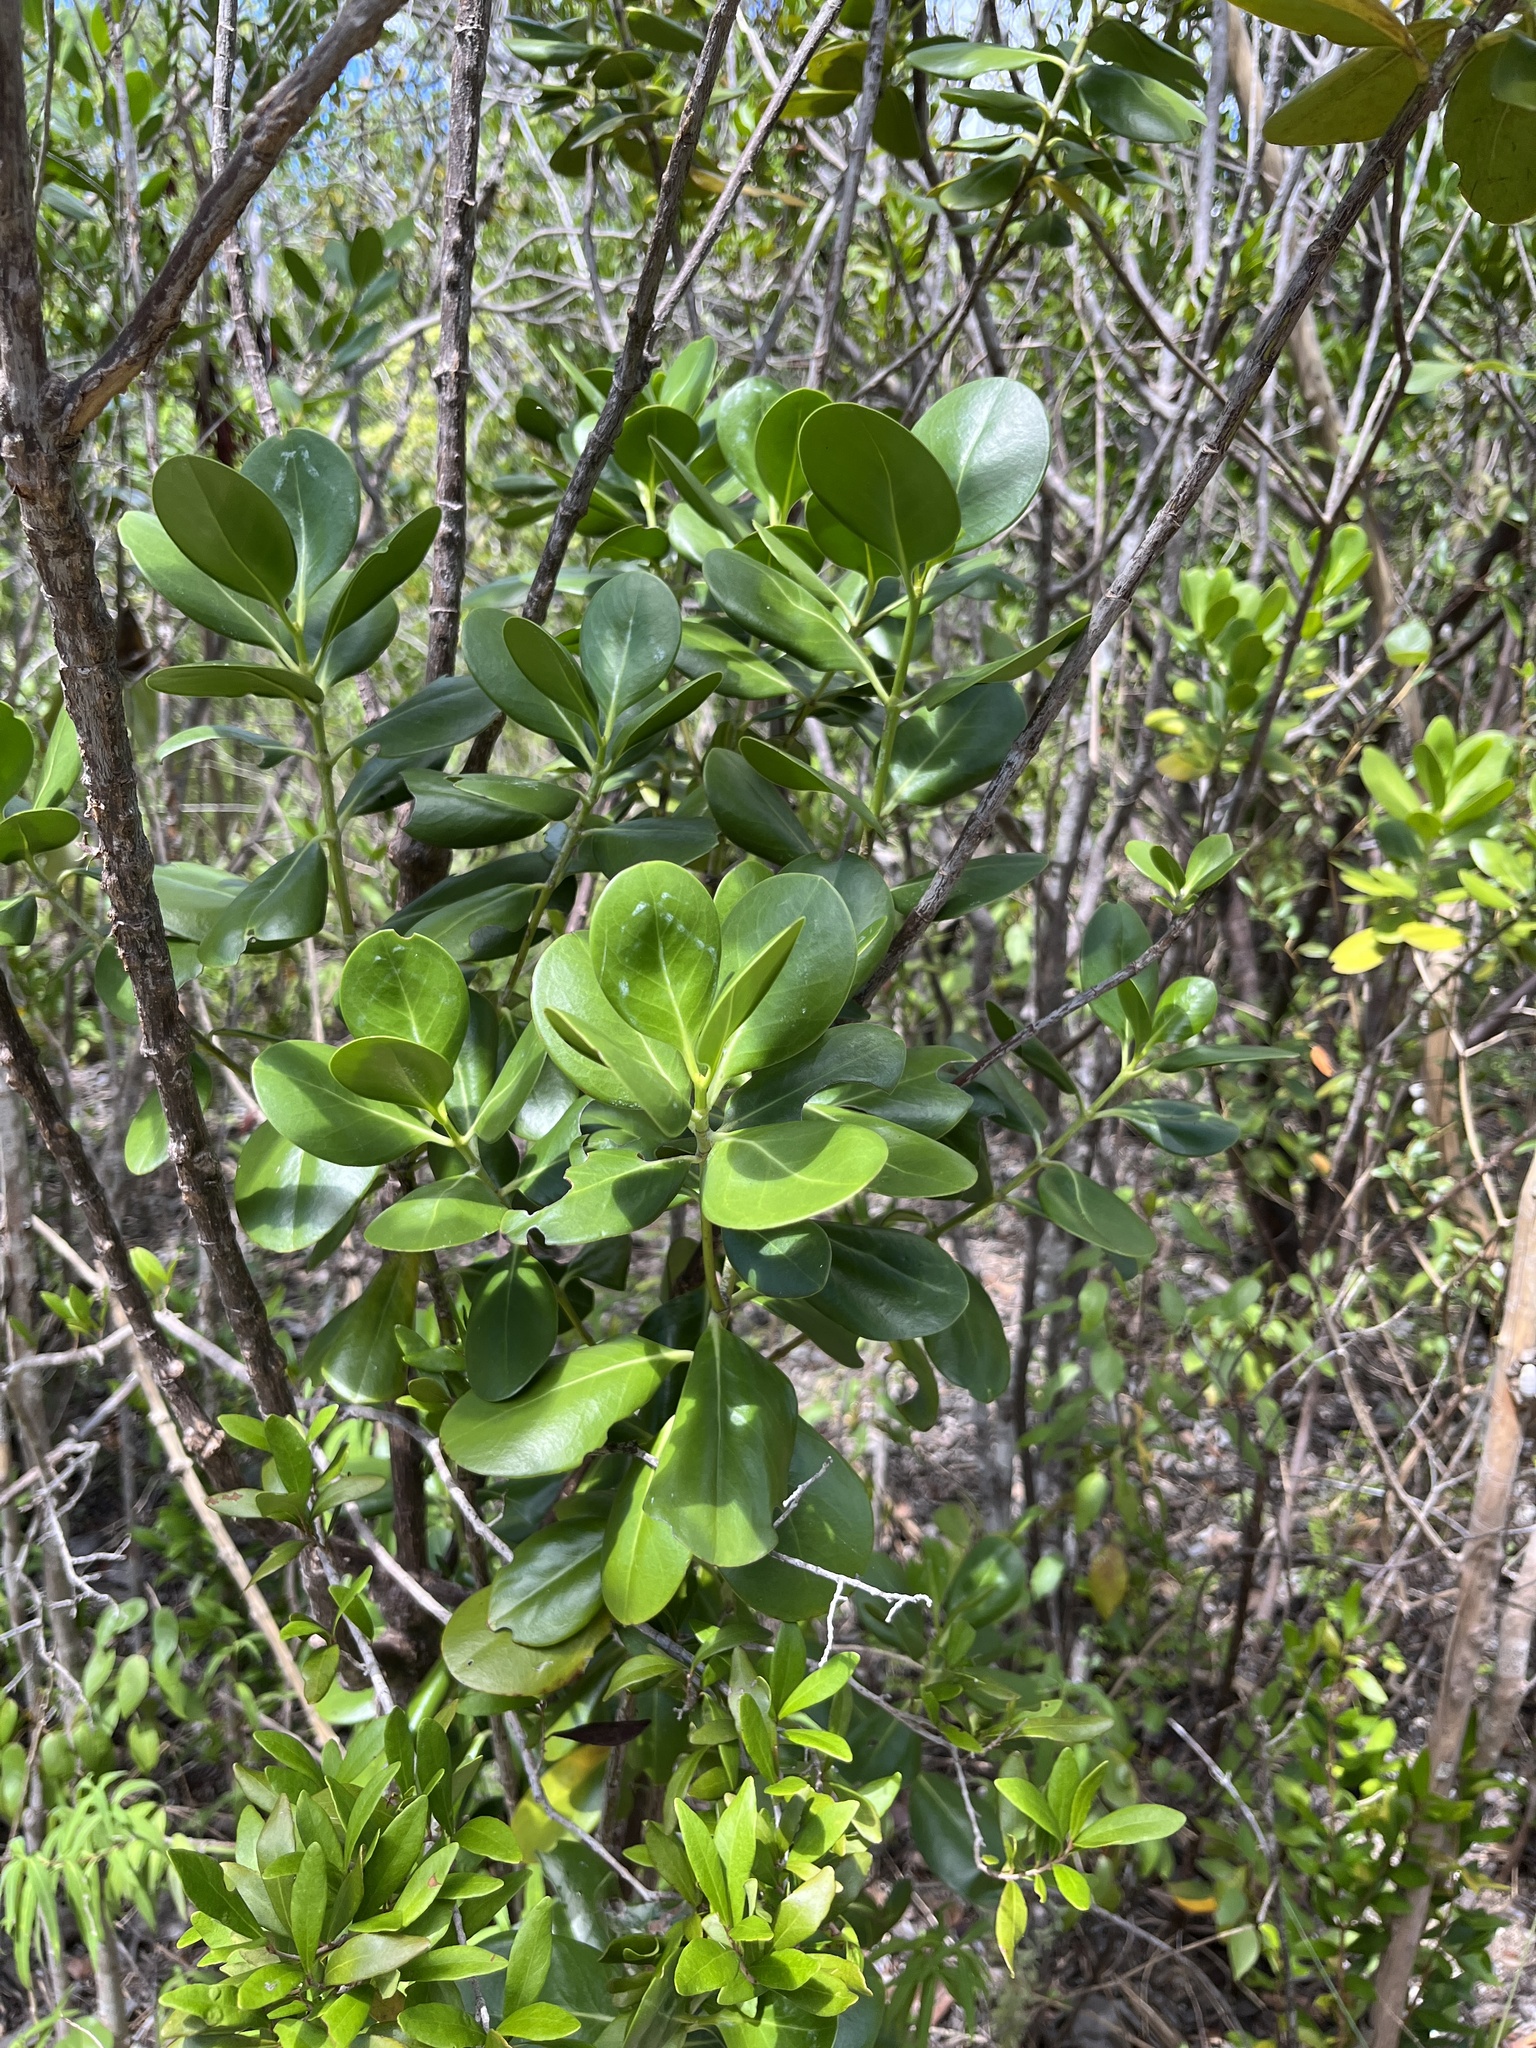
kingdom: Plantae
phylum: Tracheophyta
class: Magnoliopsida
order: Gentianales
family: Rubiaceae
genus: Erithalis
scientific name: Erithalis fruticosa
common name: Candlewood
